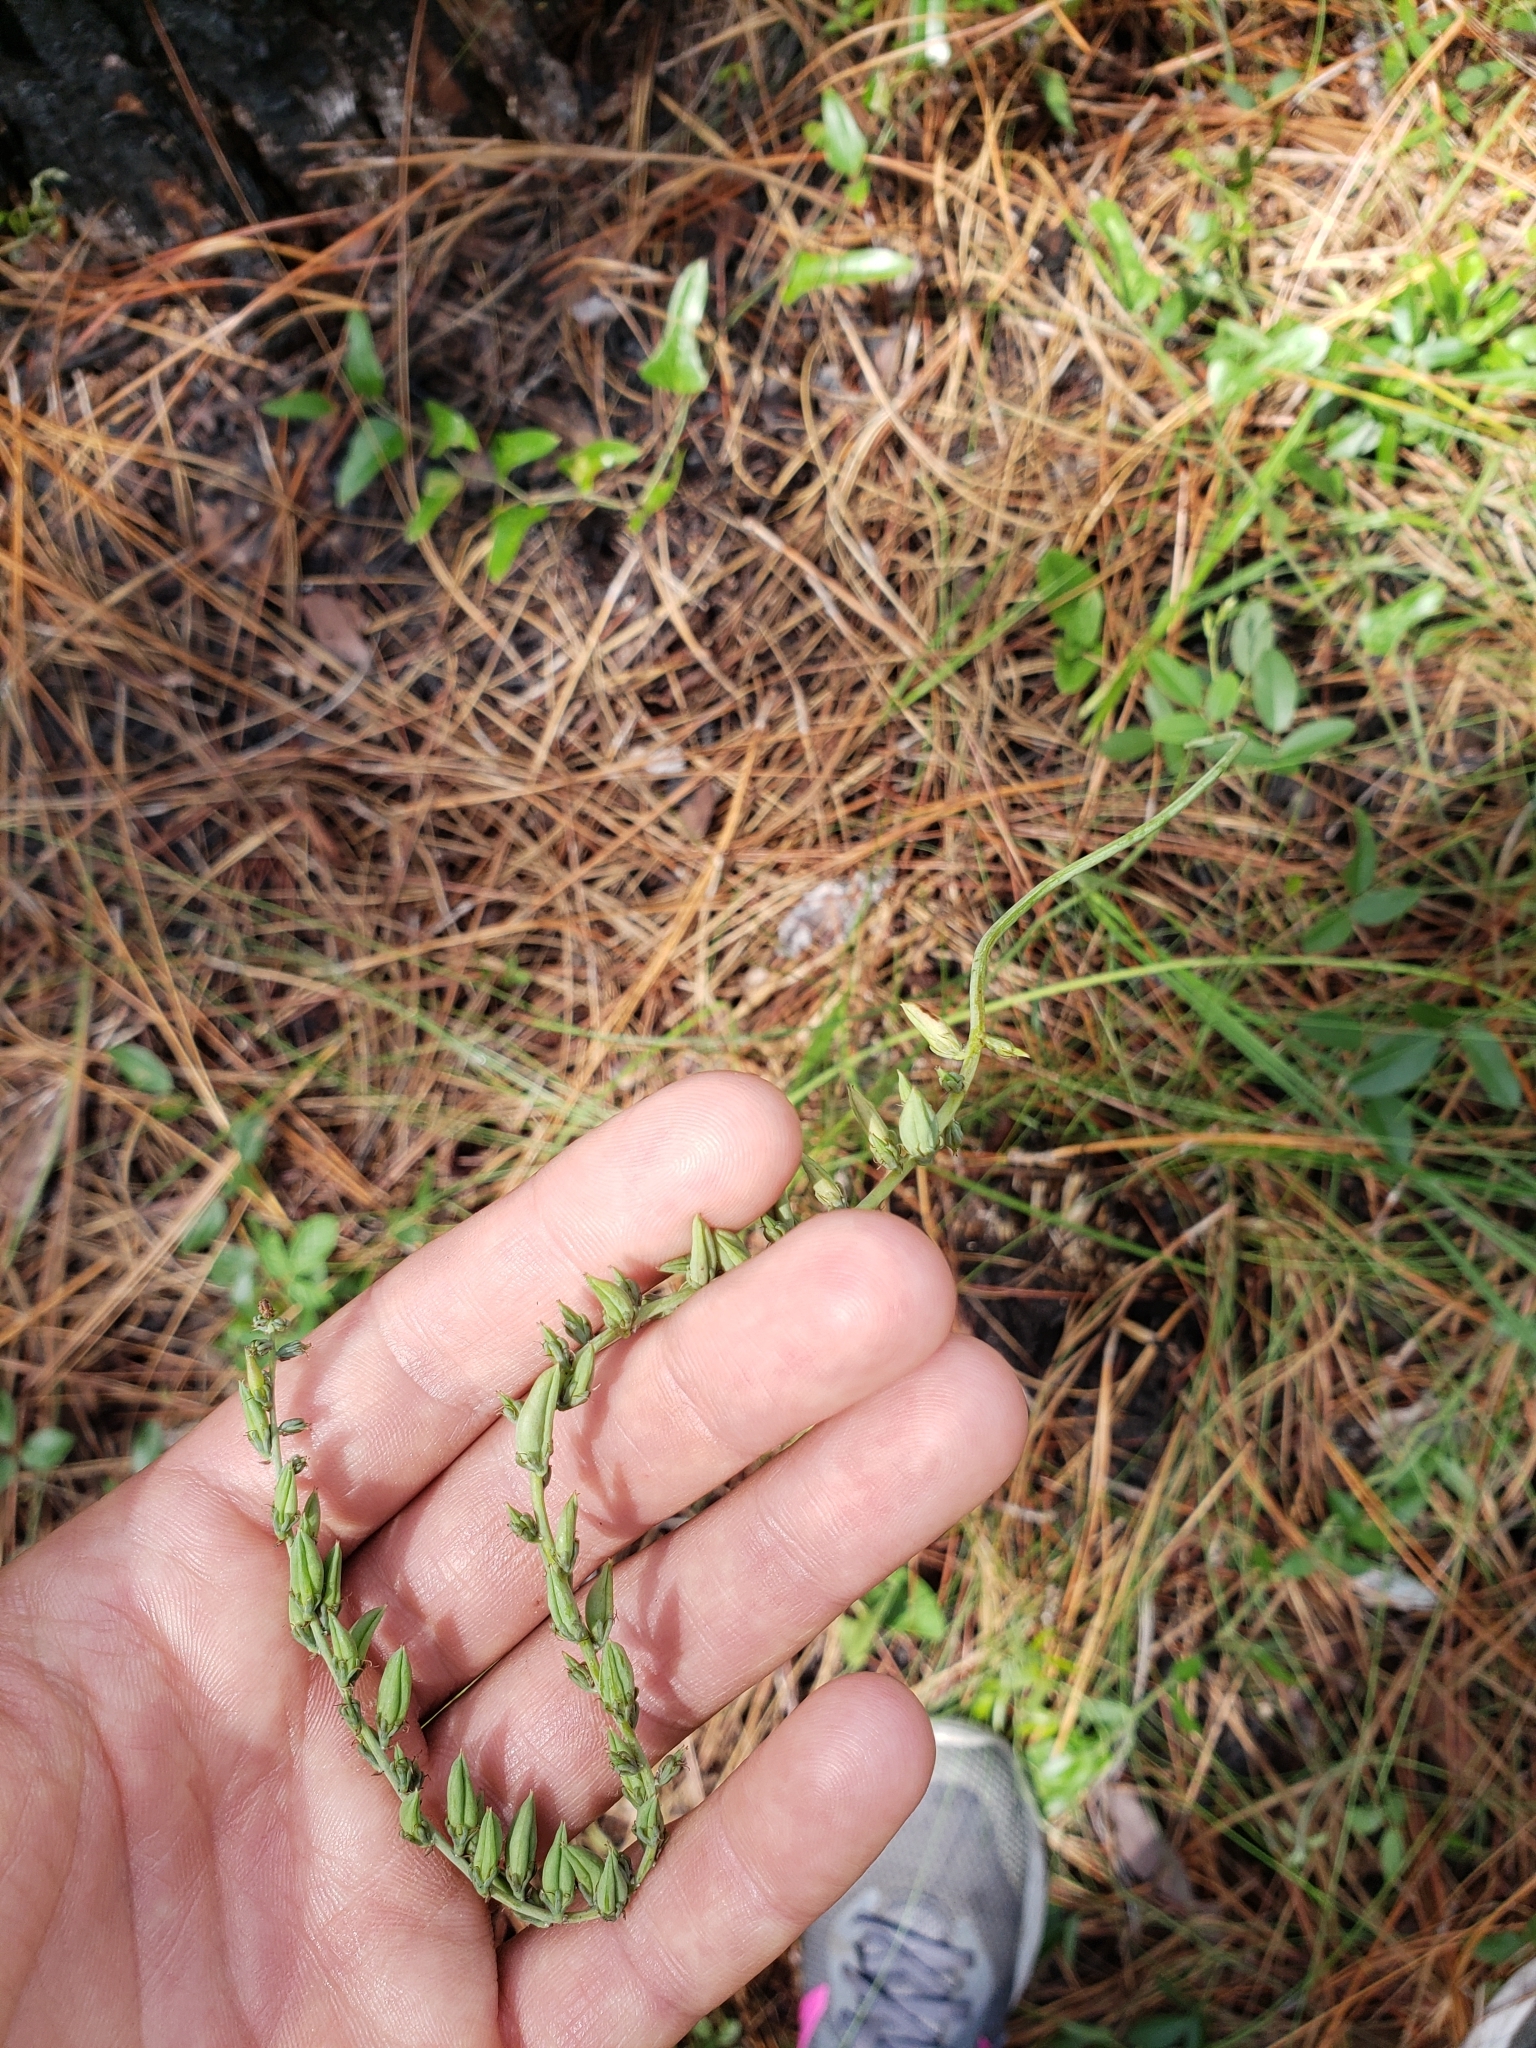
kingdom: Plantae
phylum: Tracheophyta
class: Liliopsida
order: Liliales
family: Melanthiaceae
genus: Schoenocaulon
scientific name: Schoenocaulon dubium
